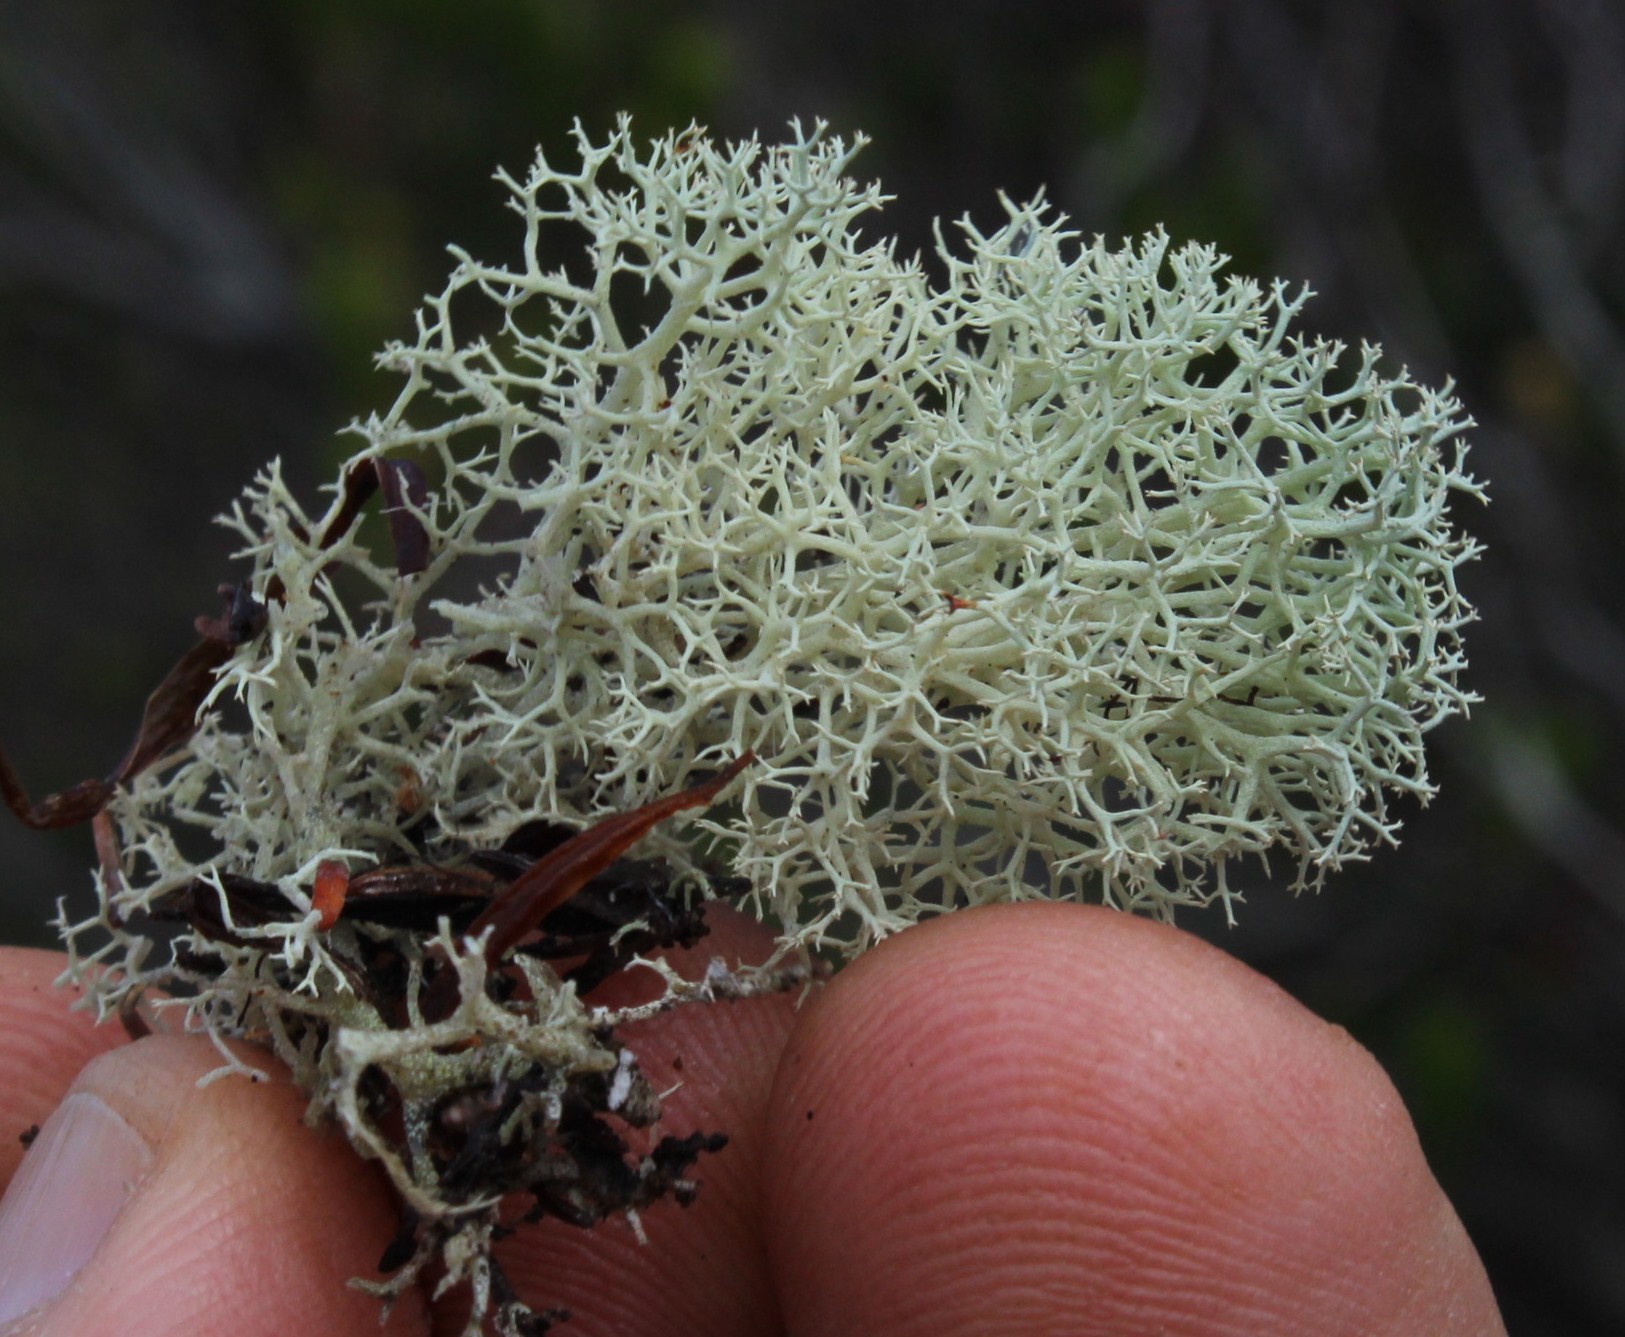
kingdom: Fungi
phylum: Ascomycota
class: Lecanoromycetes
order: Lecanorales
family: Cladoniaceae
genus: Cladonia
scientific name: Cladonia confusa
